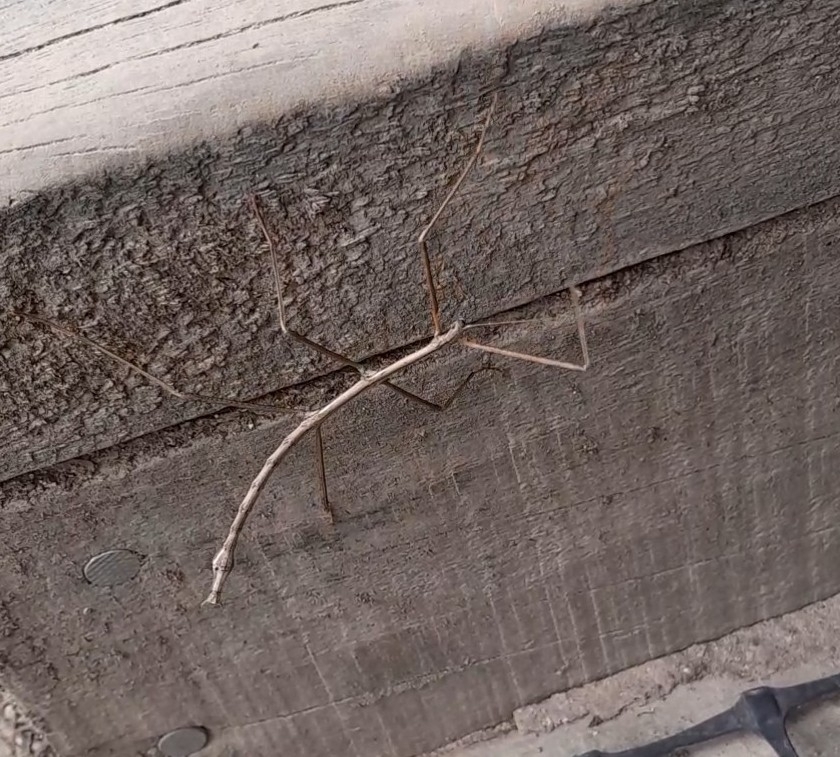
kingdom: Animalia
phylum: Arthropoda
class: Insecta
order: Phasmida
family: Phasmatidae
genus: Argosarchus
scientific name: Argosarchus horridus
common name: Bristly stick insect
